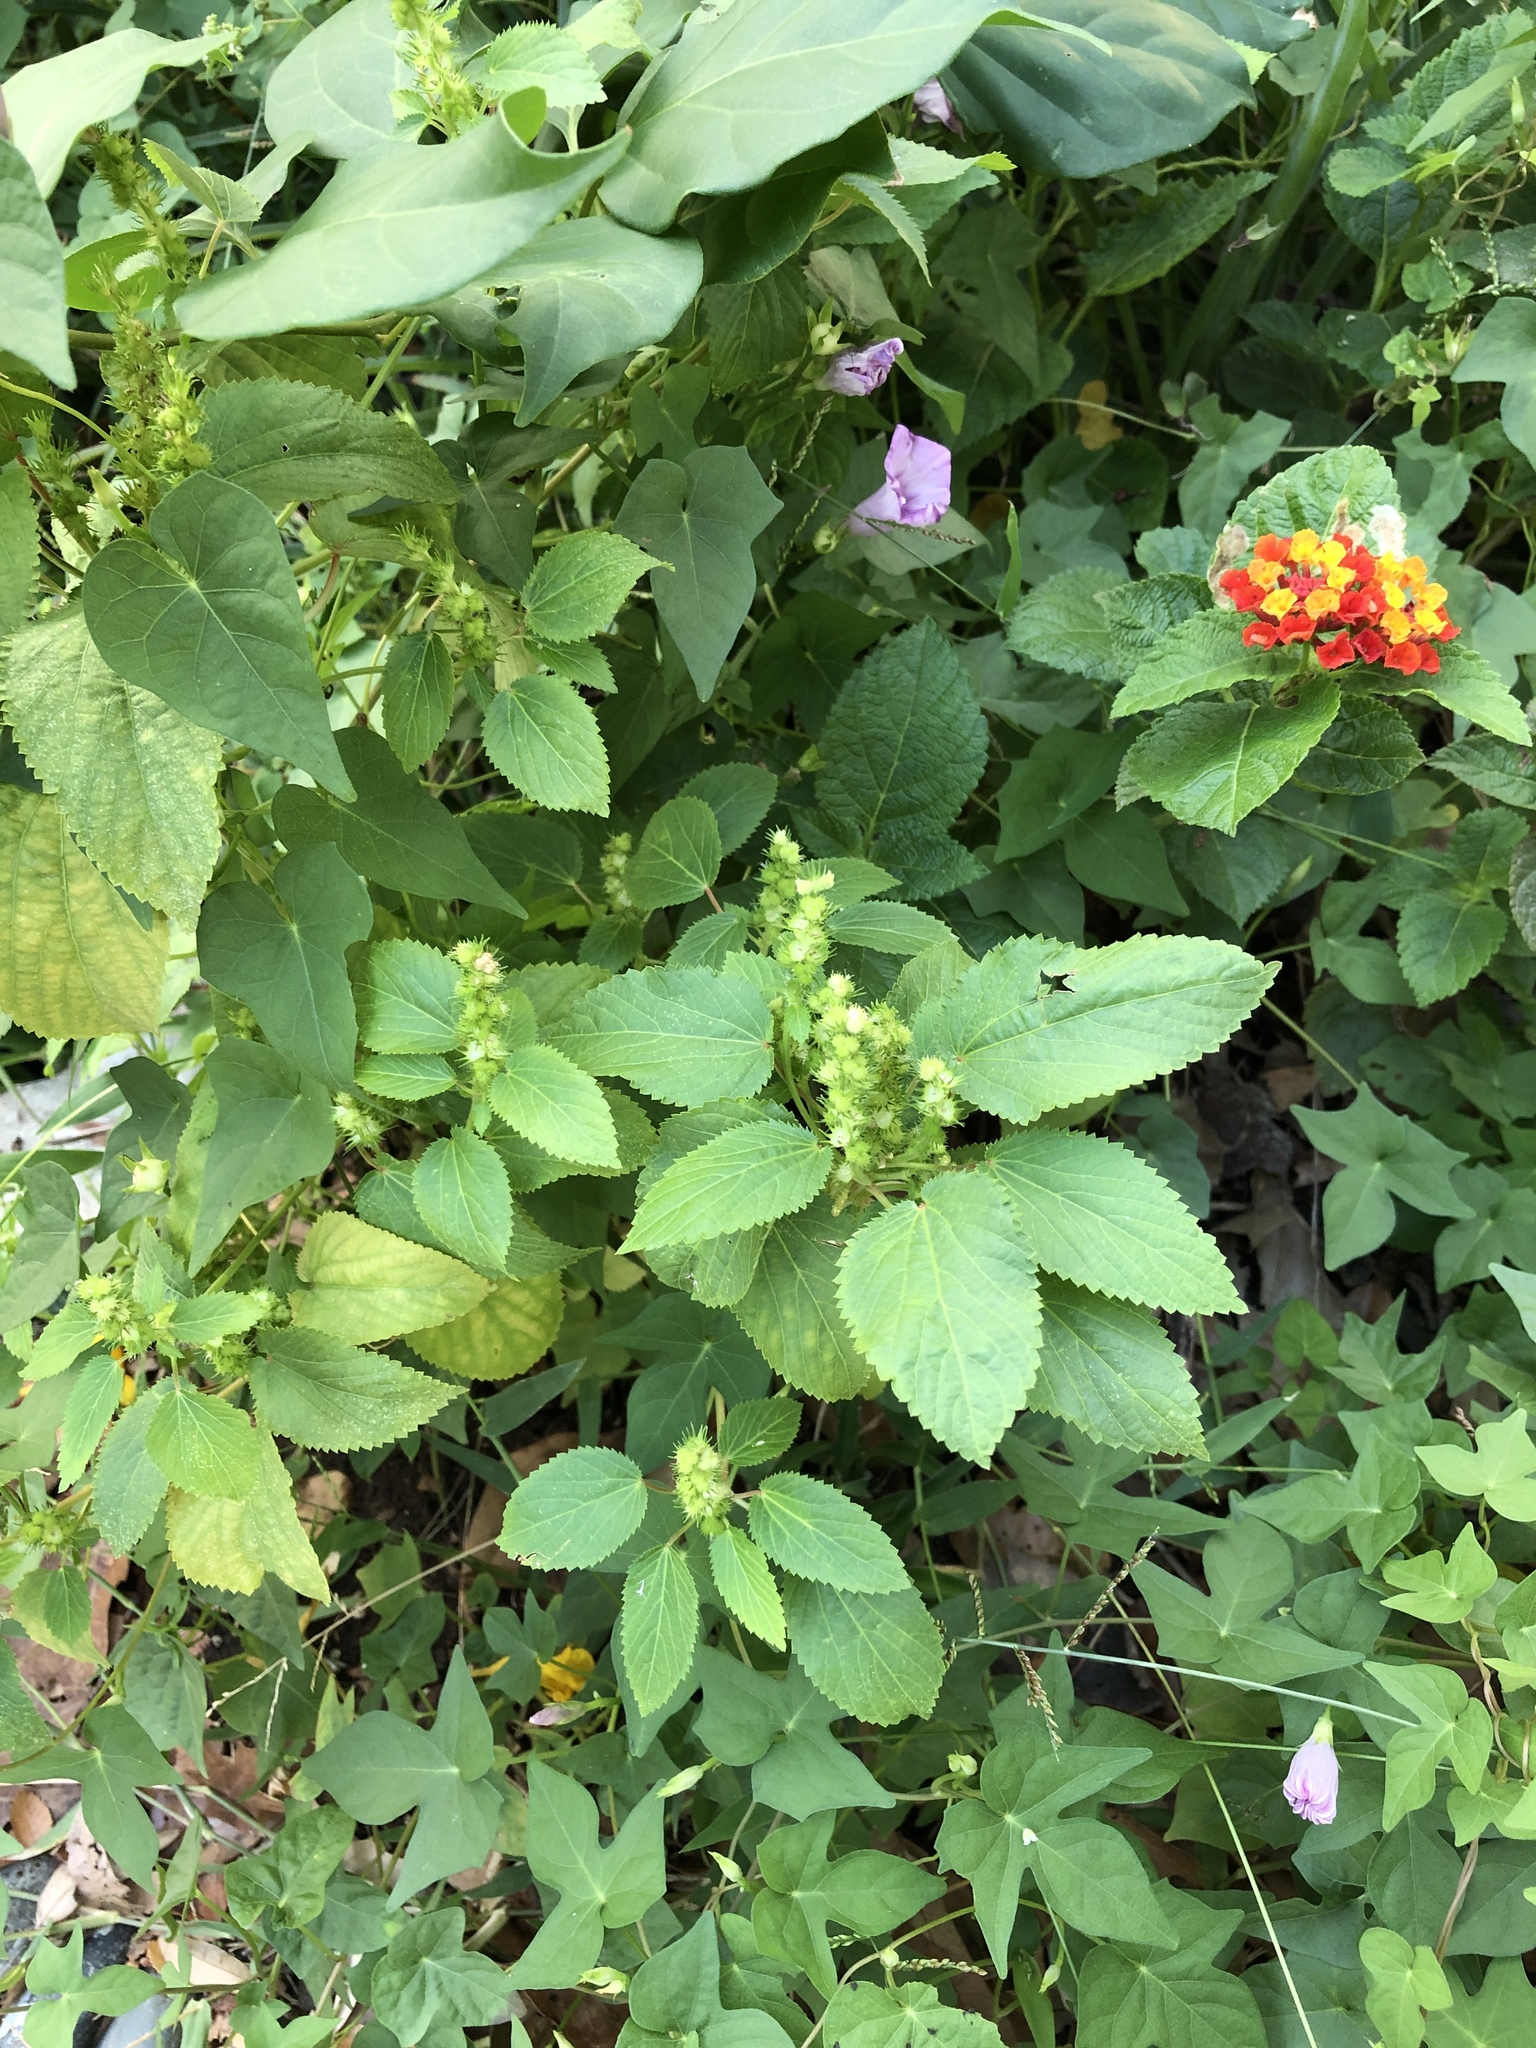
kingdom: Plantae
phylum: Tracheophyta
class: Magnoliopsida
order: Malpighiales
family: Euphorbiaceae
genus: Acalypha
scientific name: Acalypha ostryifolia
